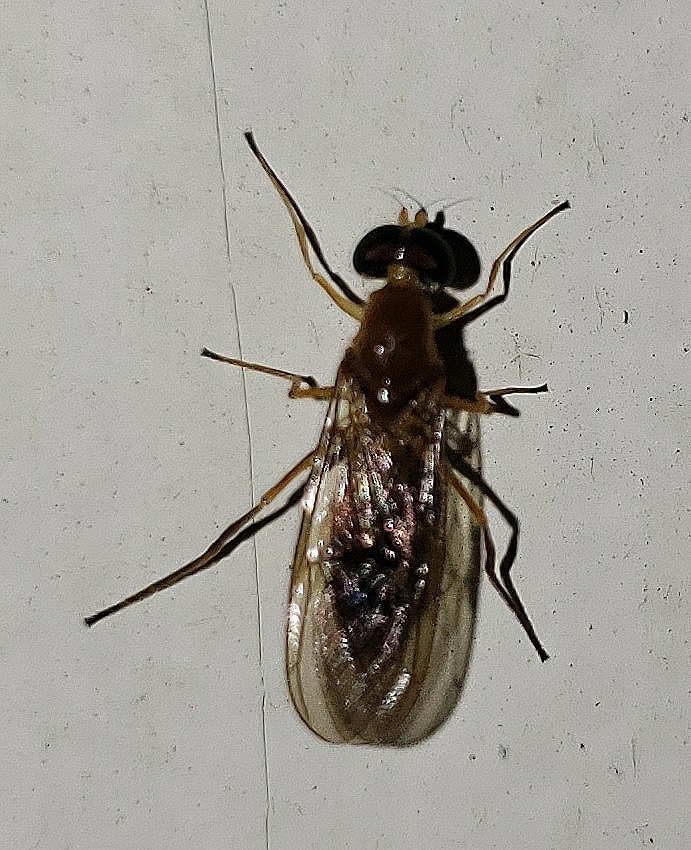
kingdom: Animalia
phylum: Arthropoda
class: Insecta
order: Diptera
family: Stratiomyidae
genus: Ptecticus
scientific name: Ptecticus trivittatus
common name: Compost fly
